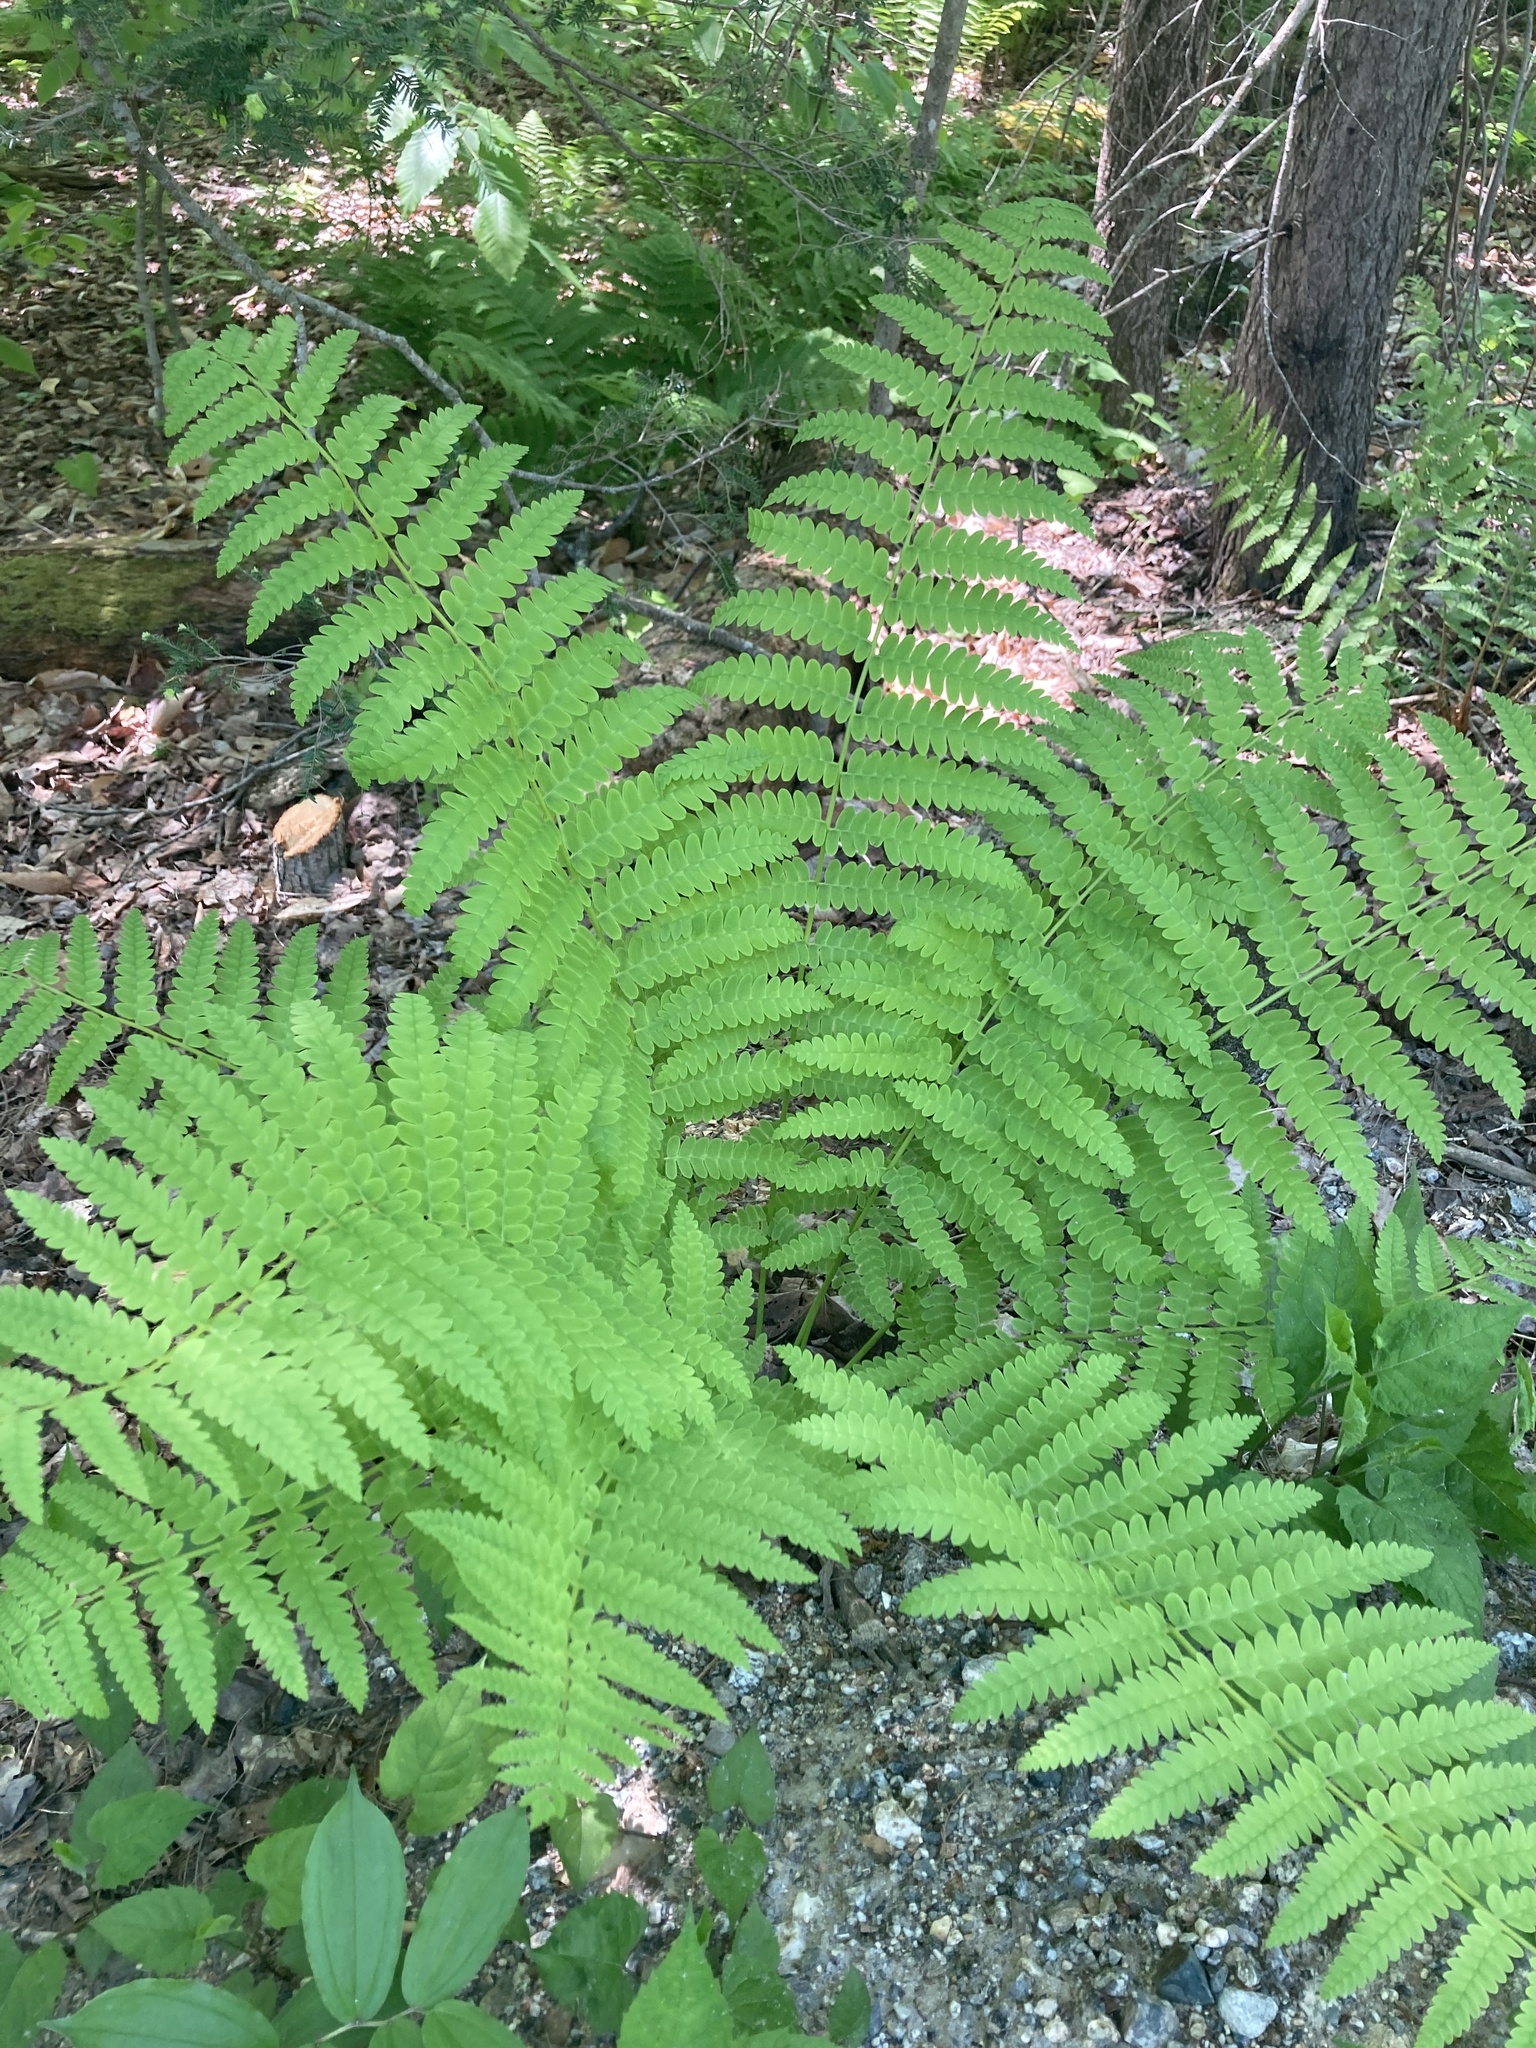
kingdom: Plantae
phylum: Tracheophyta
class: Polypodiopsida
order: Osmundales
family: Osmundaceae
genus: Claytosmunda
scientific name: Claytosmunda claytoniana
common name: Clayton's fern
